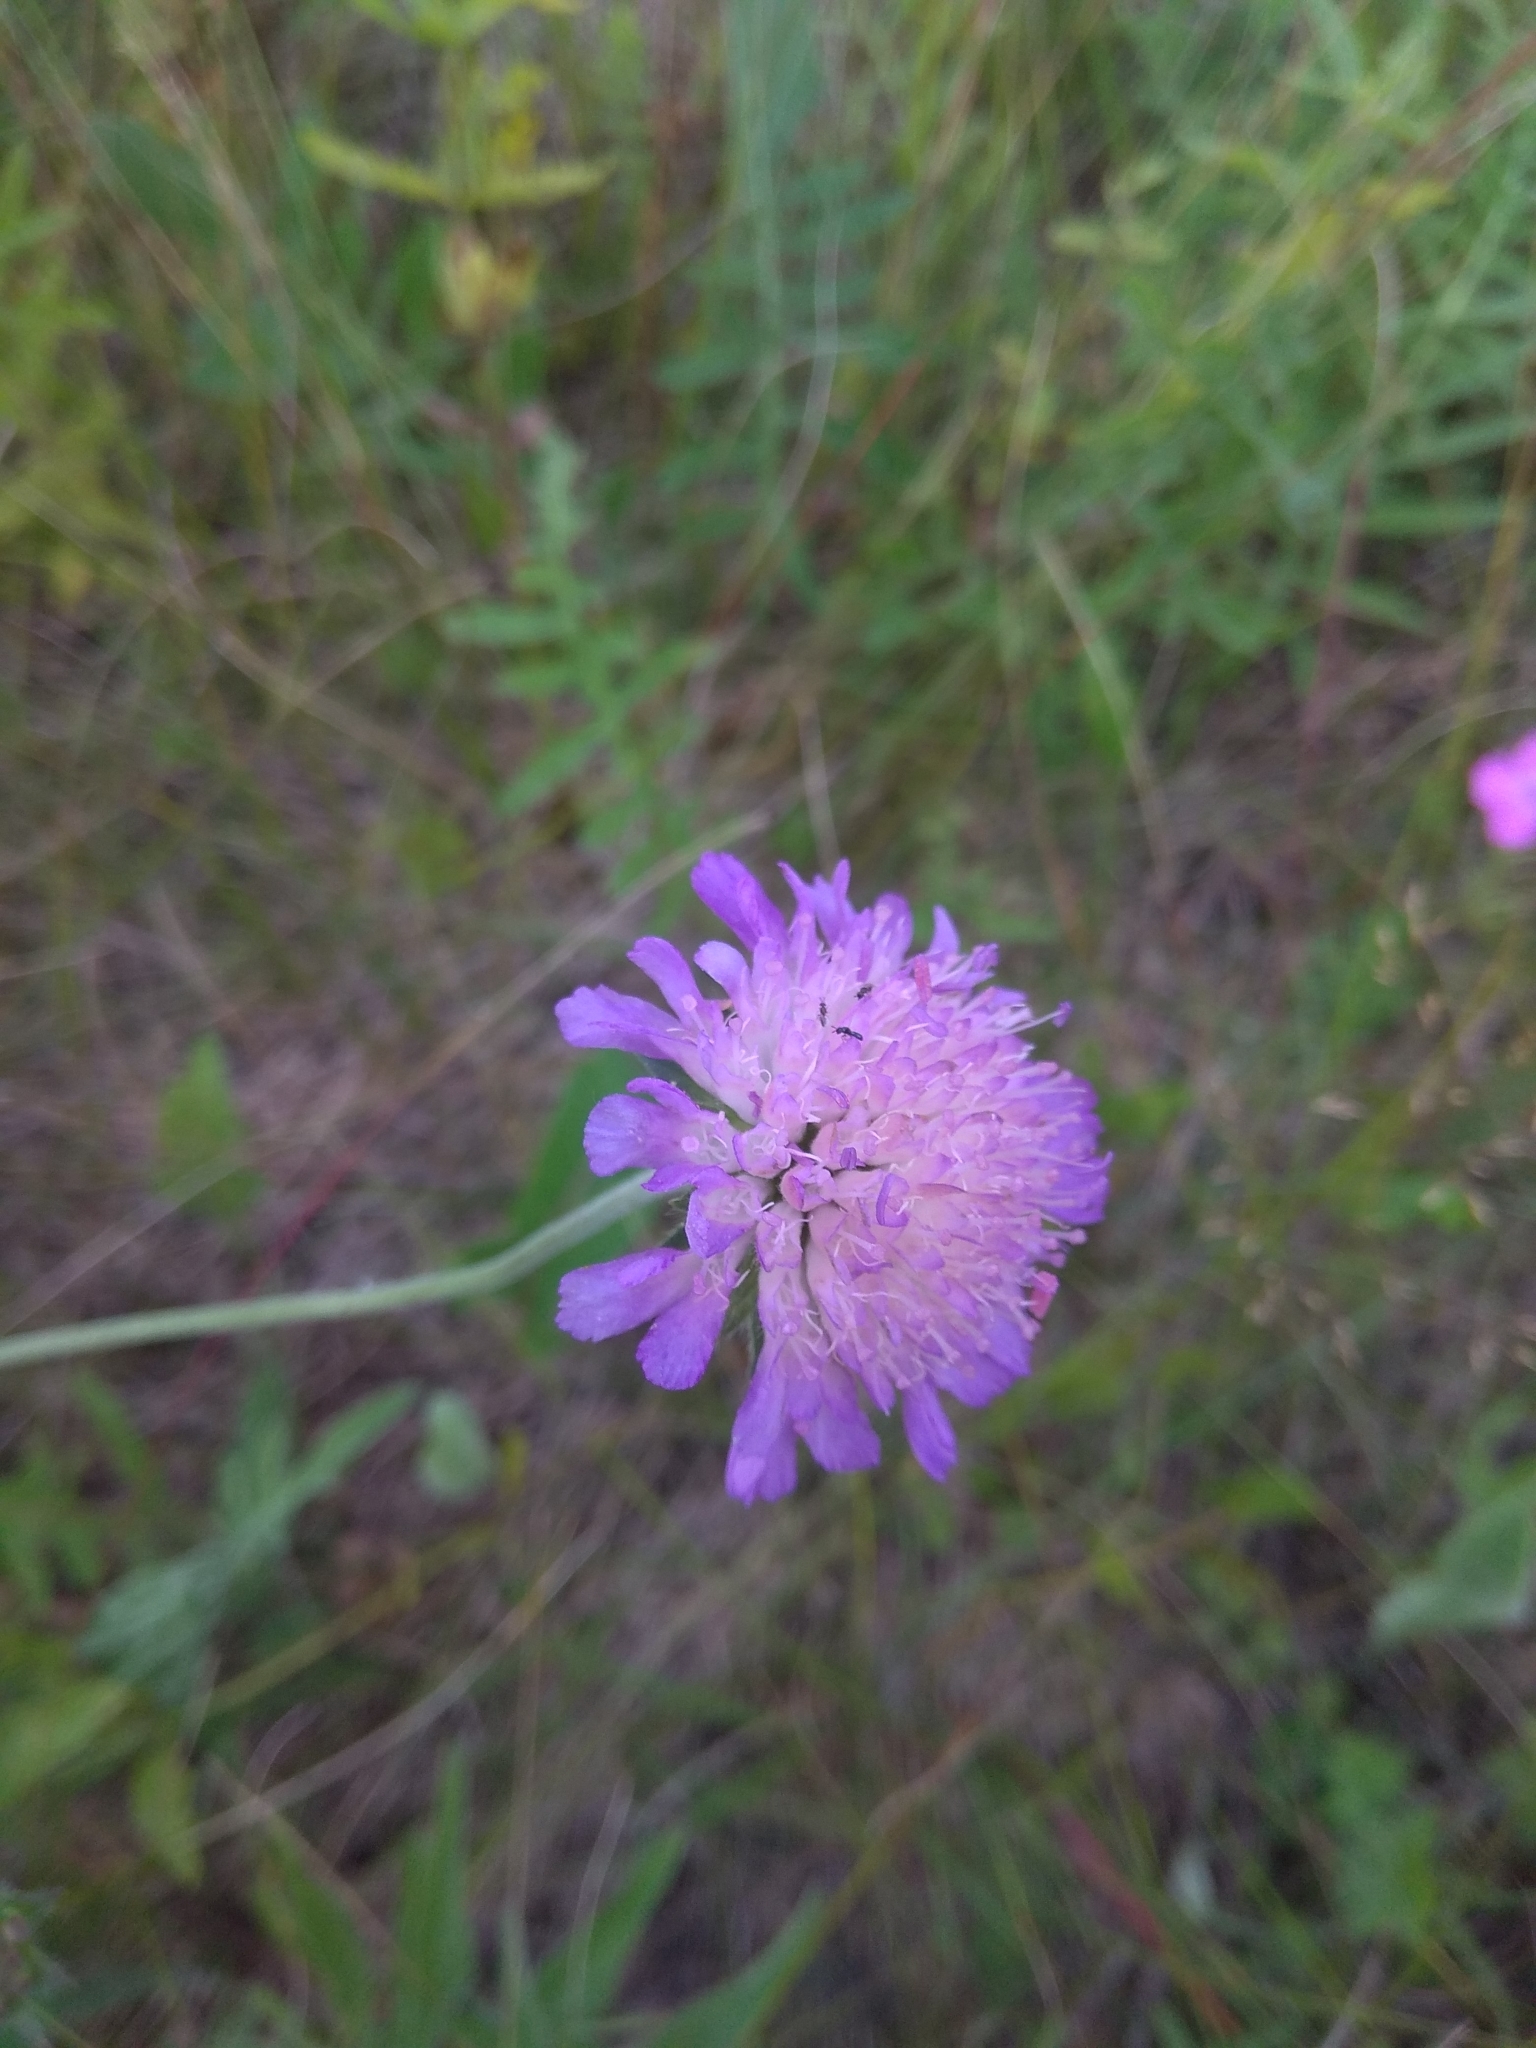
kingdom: Plantae
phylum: Tracheophyta
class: Magnoliopsida
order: Dipsacales
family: Caprifoliaceae
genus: Knautia
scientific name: Knautia arvensis
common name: Field scabiosa
